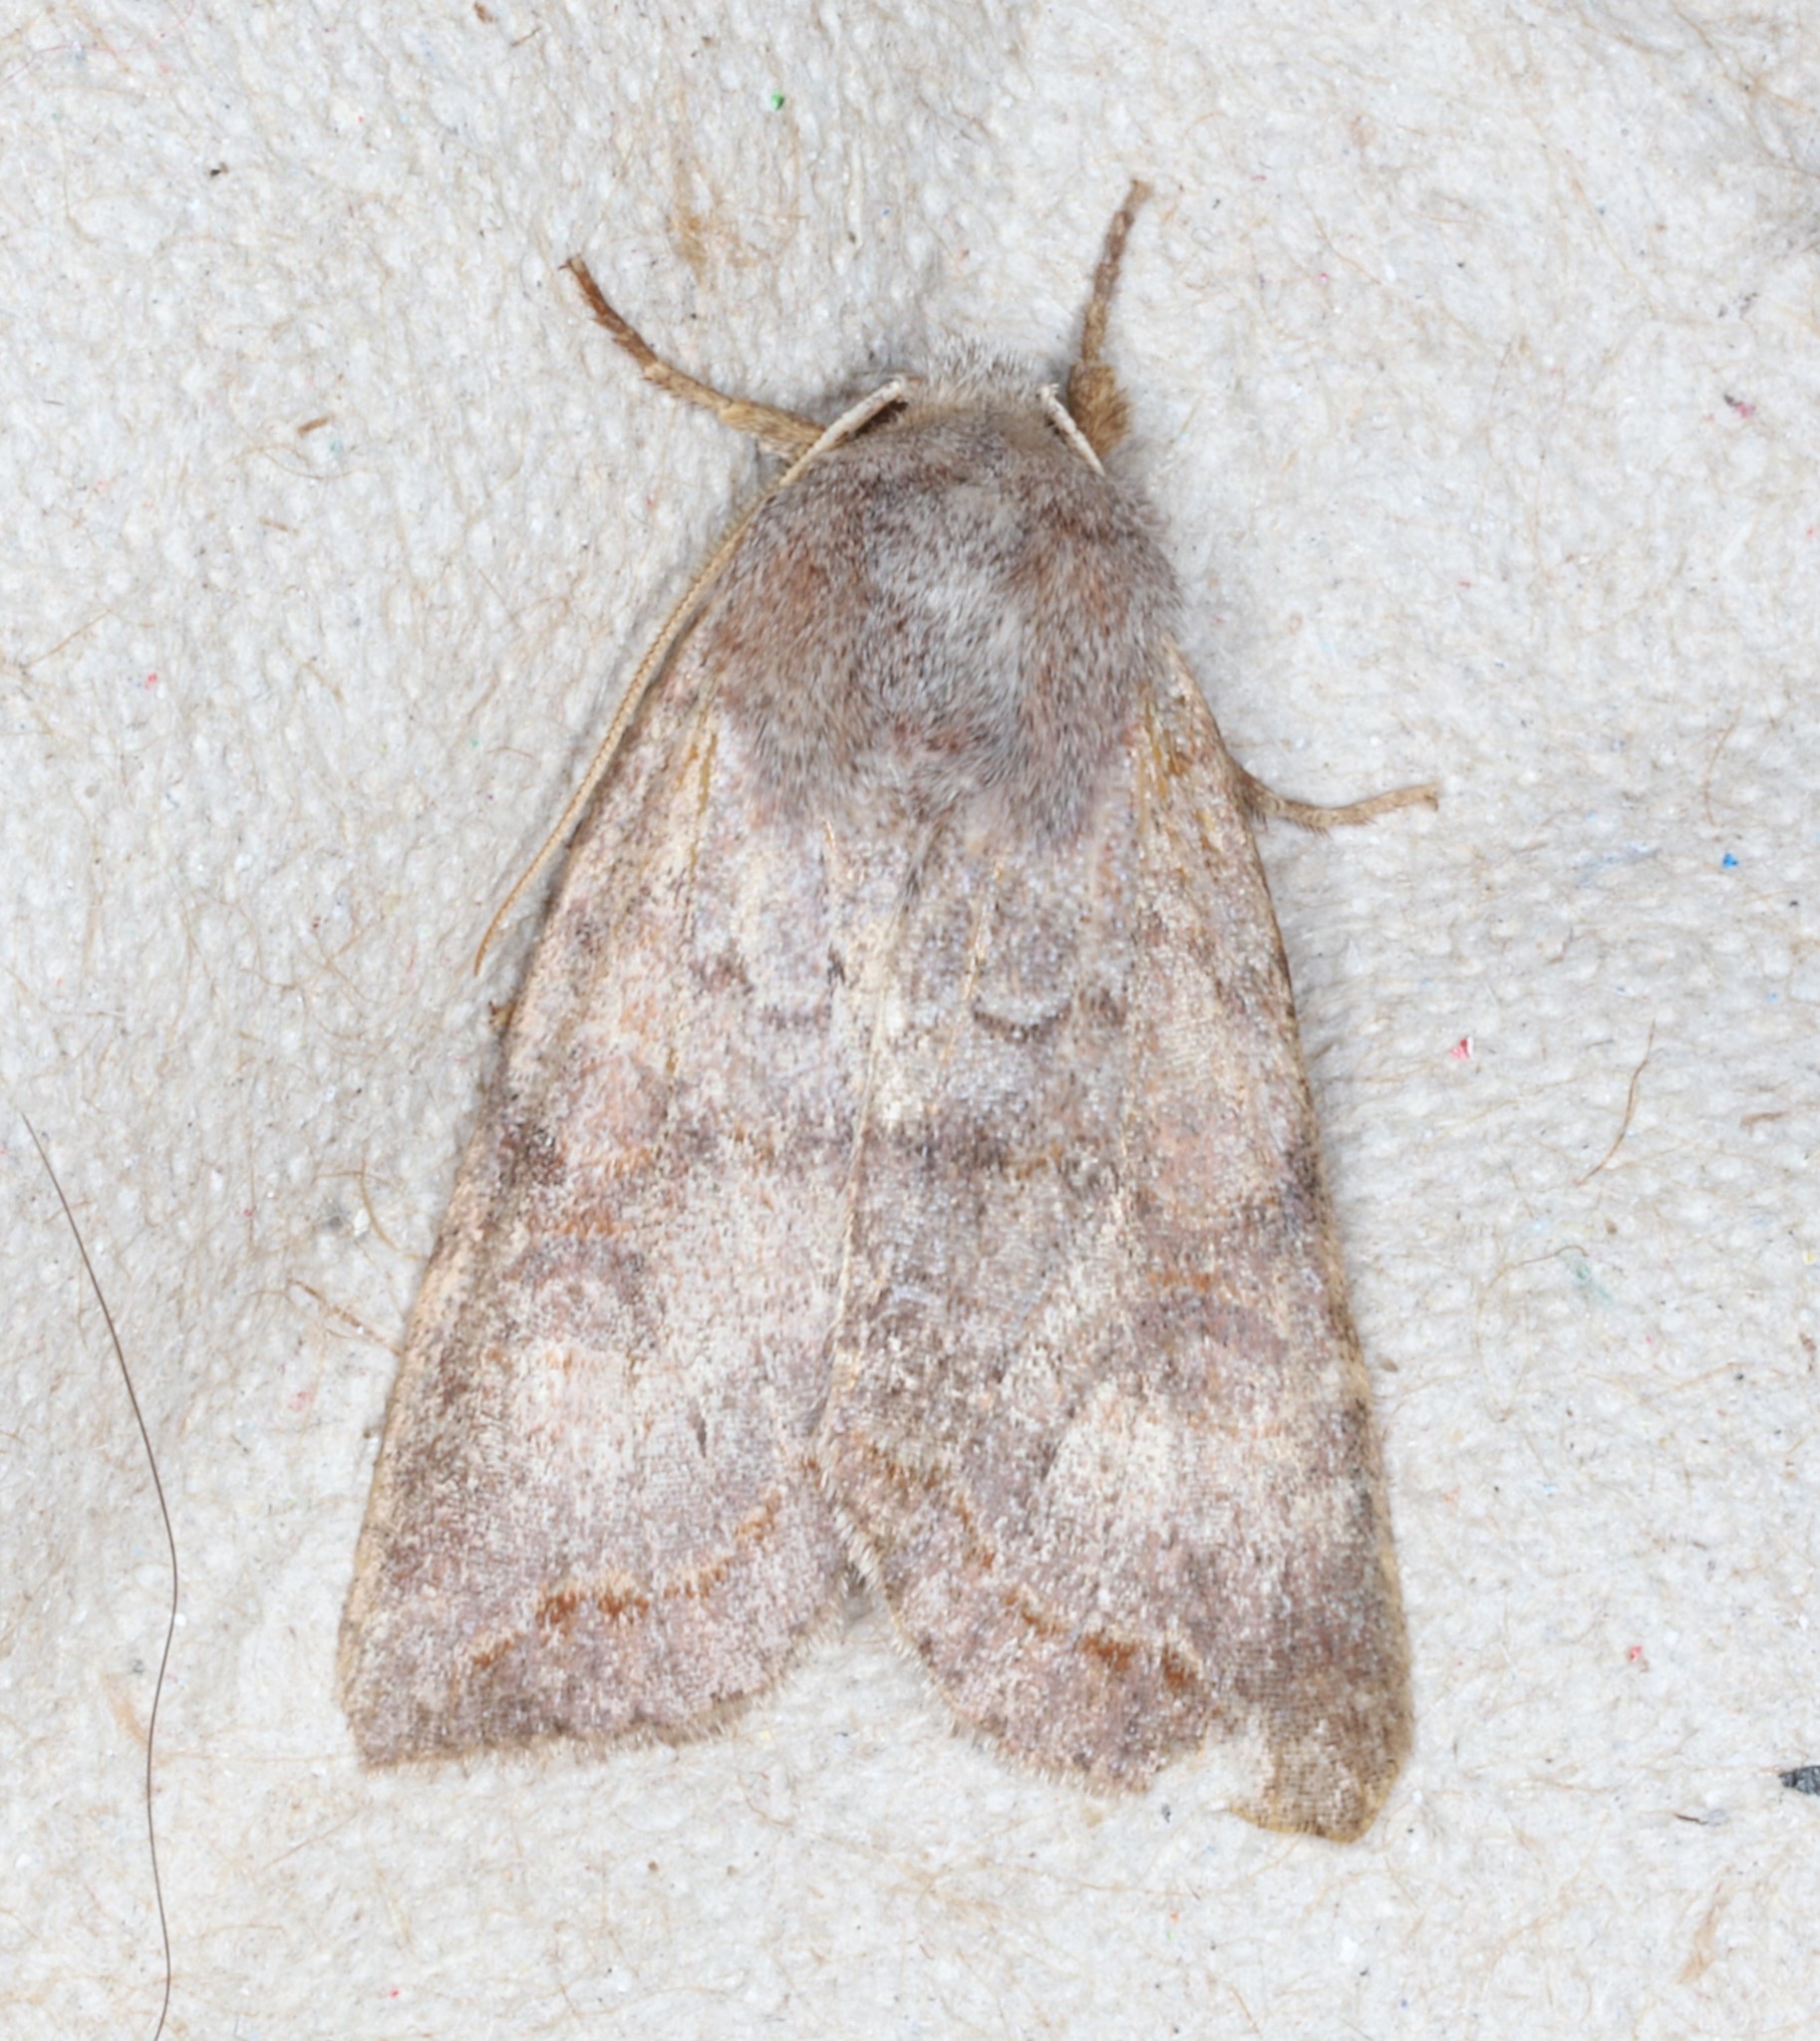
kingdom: Animalia
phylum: Arthropoda
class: Insecta
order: Lepidoptera
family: Noctuidae
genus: Orthosia
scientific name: Orthosia revicta
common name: Rusty whitesided caterpillar
